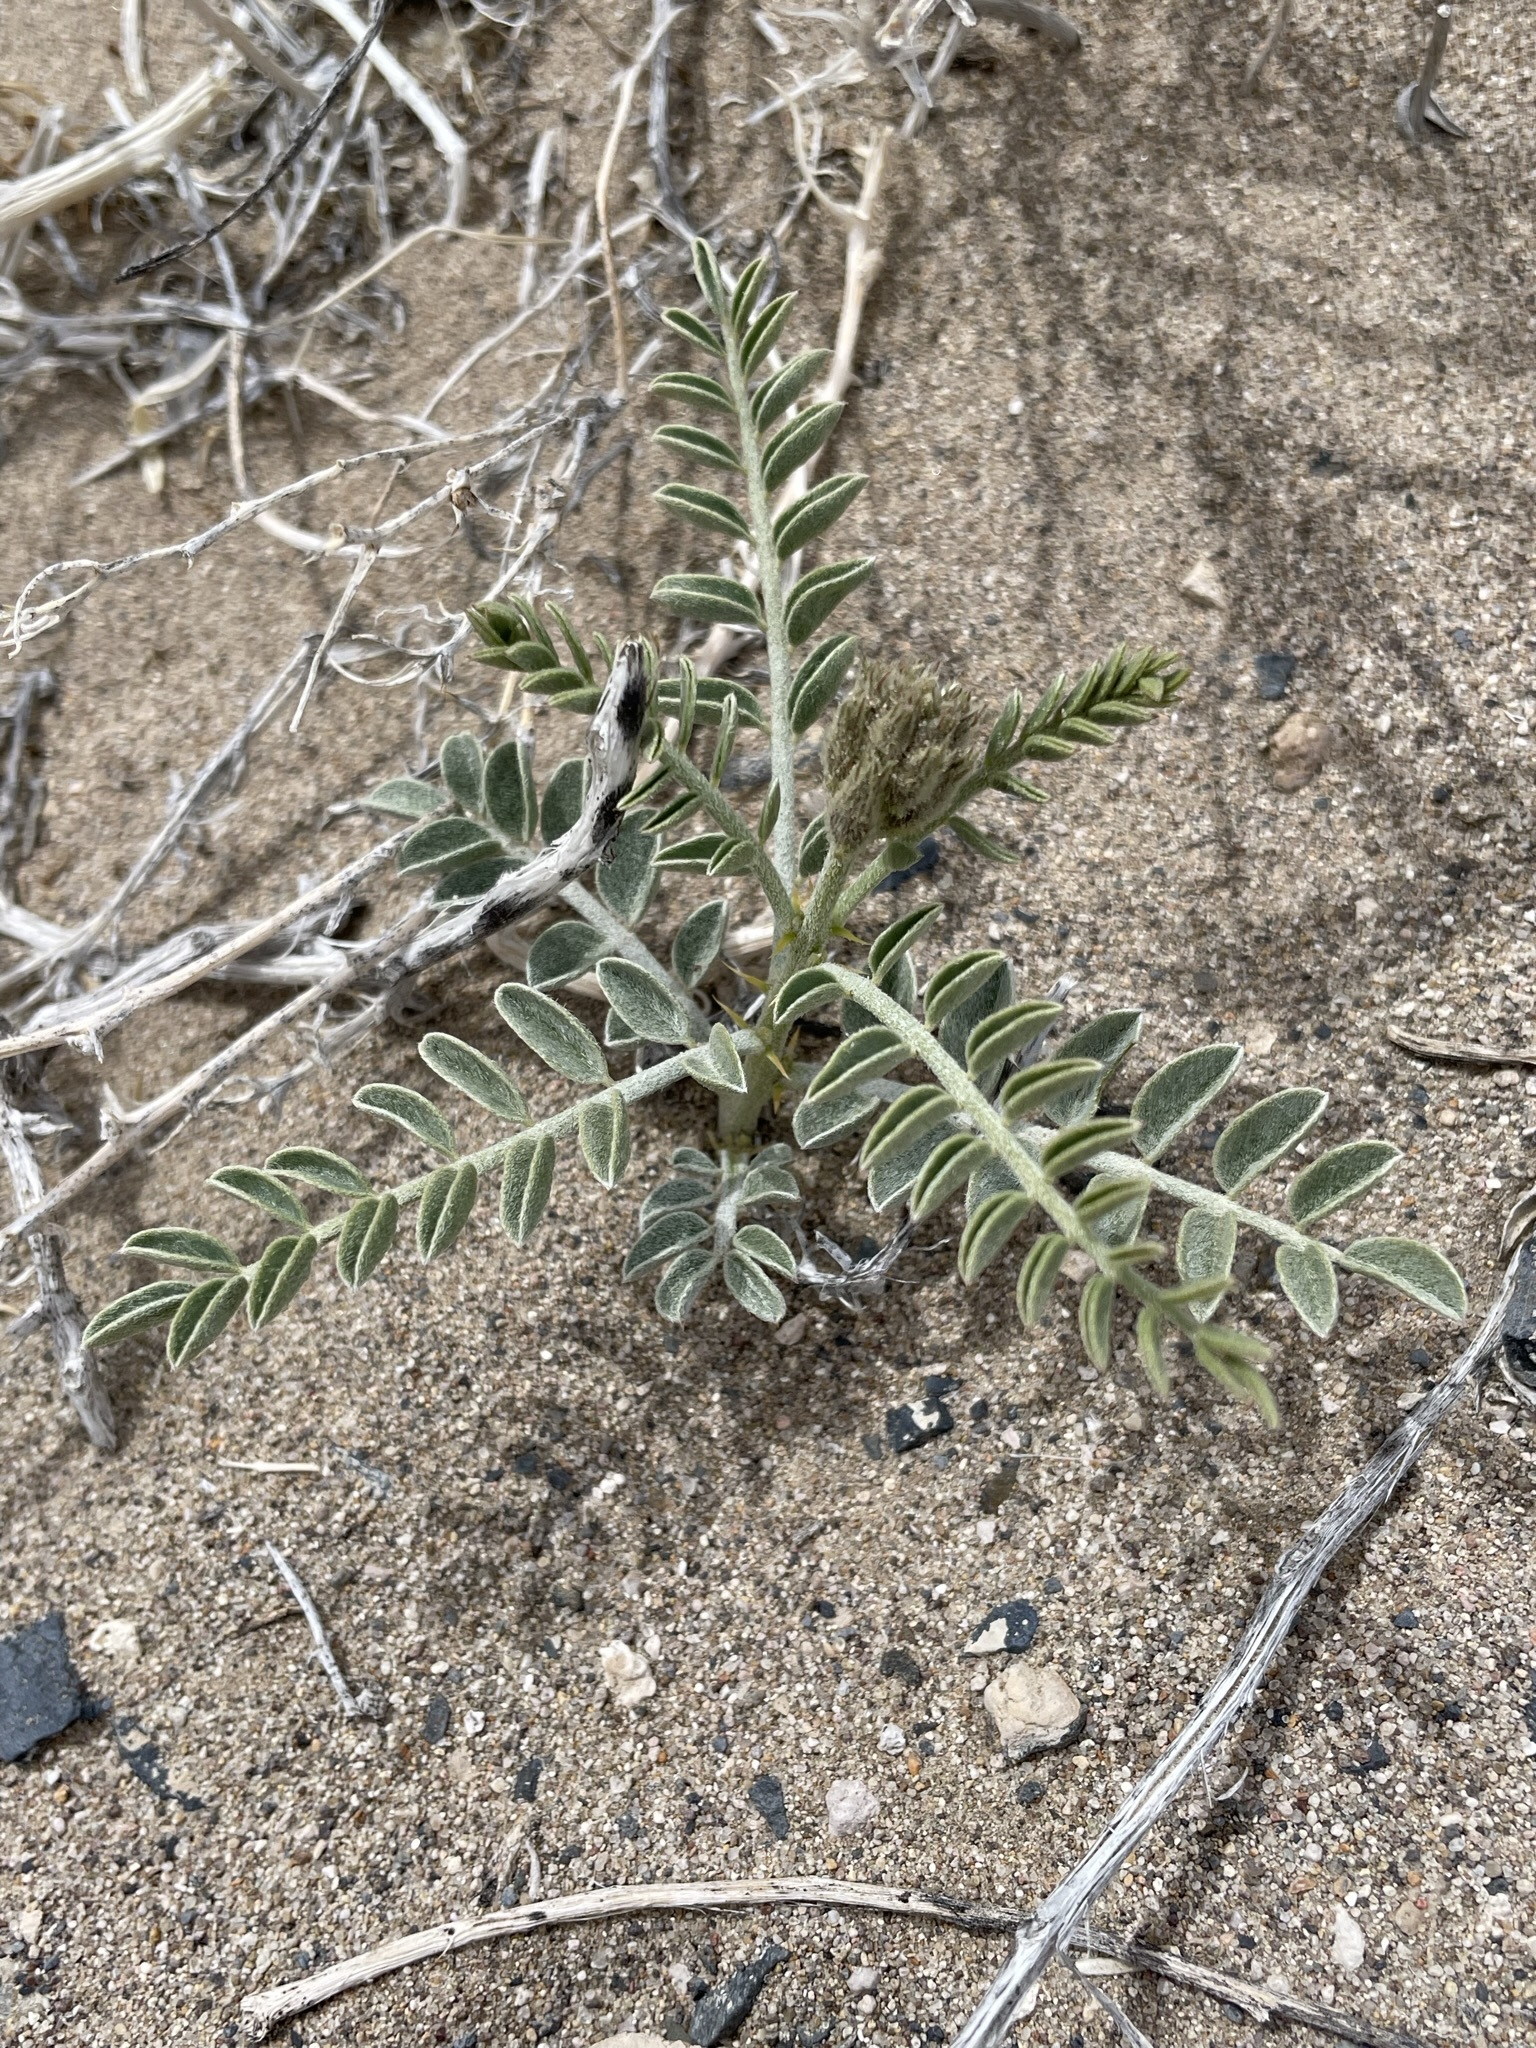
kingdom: Plantae
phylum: Tracheophyta
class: Magnoliopsida
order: Fabales
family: Fabaceae
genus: Peteria
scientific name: Peteria thompsoniae
